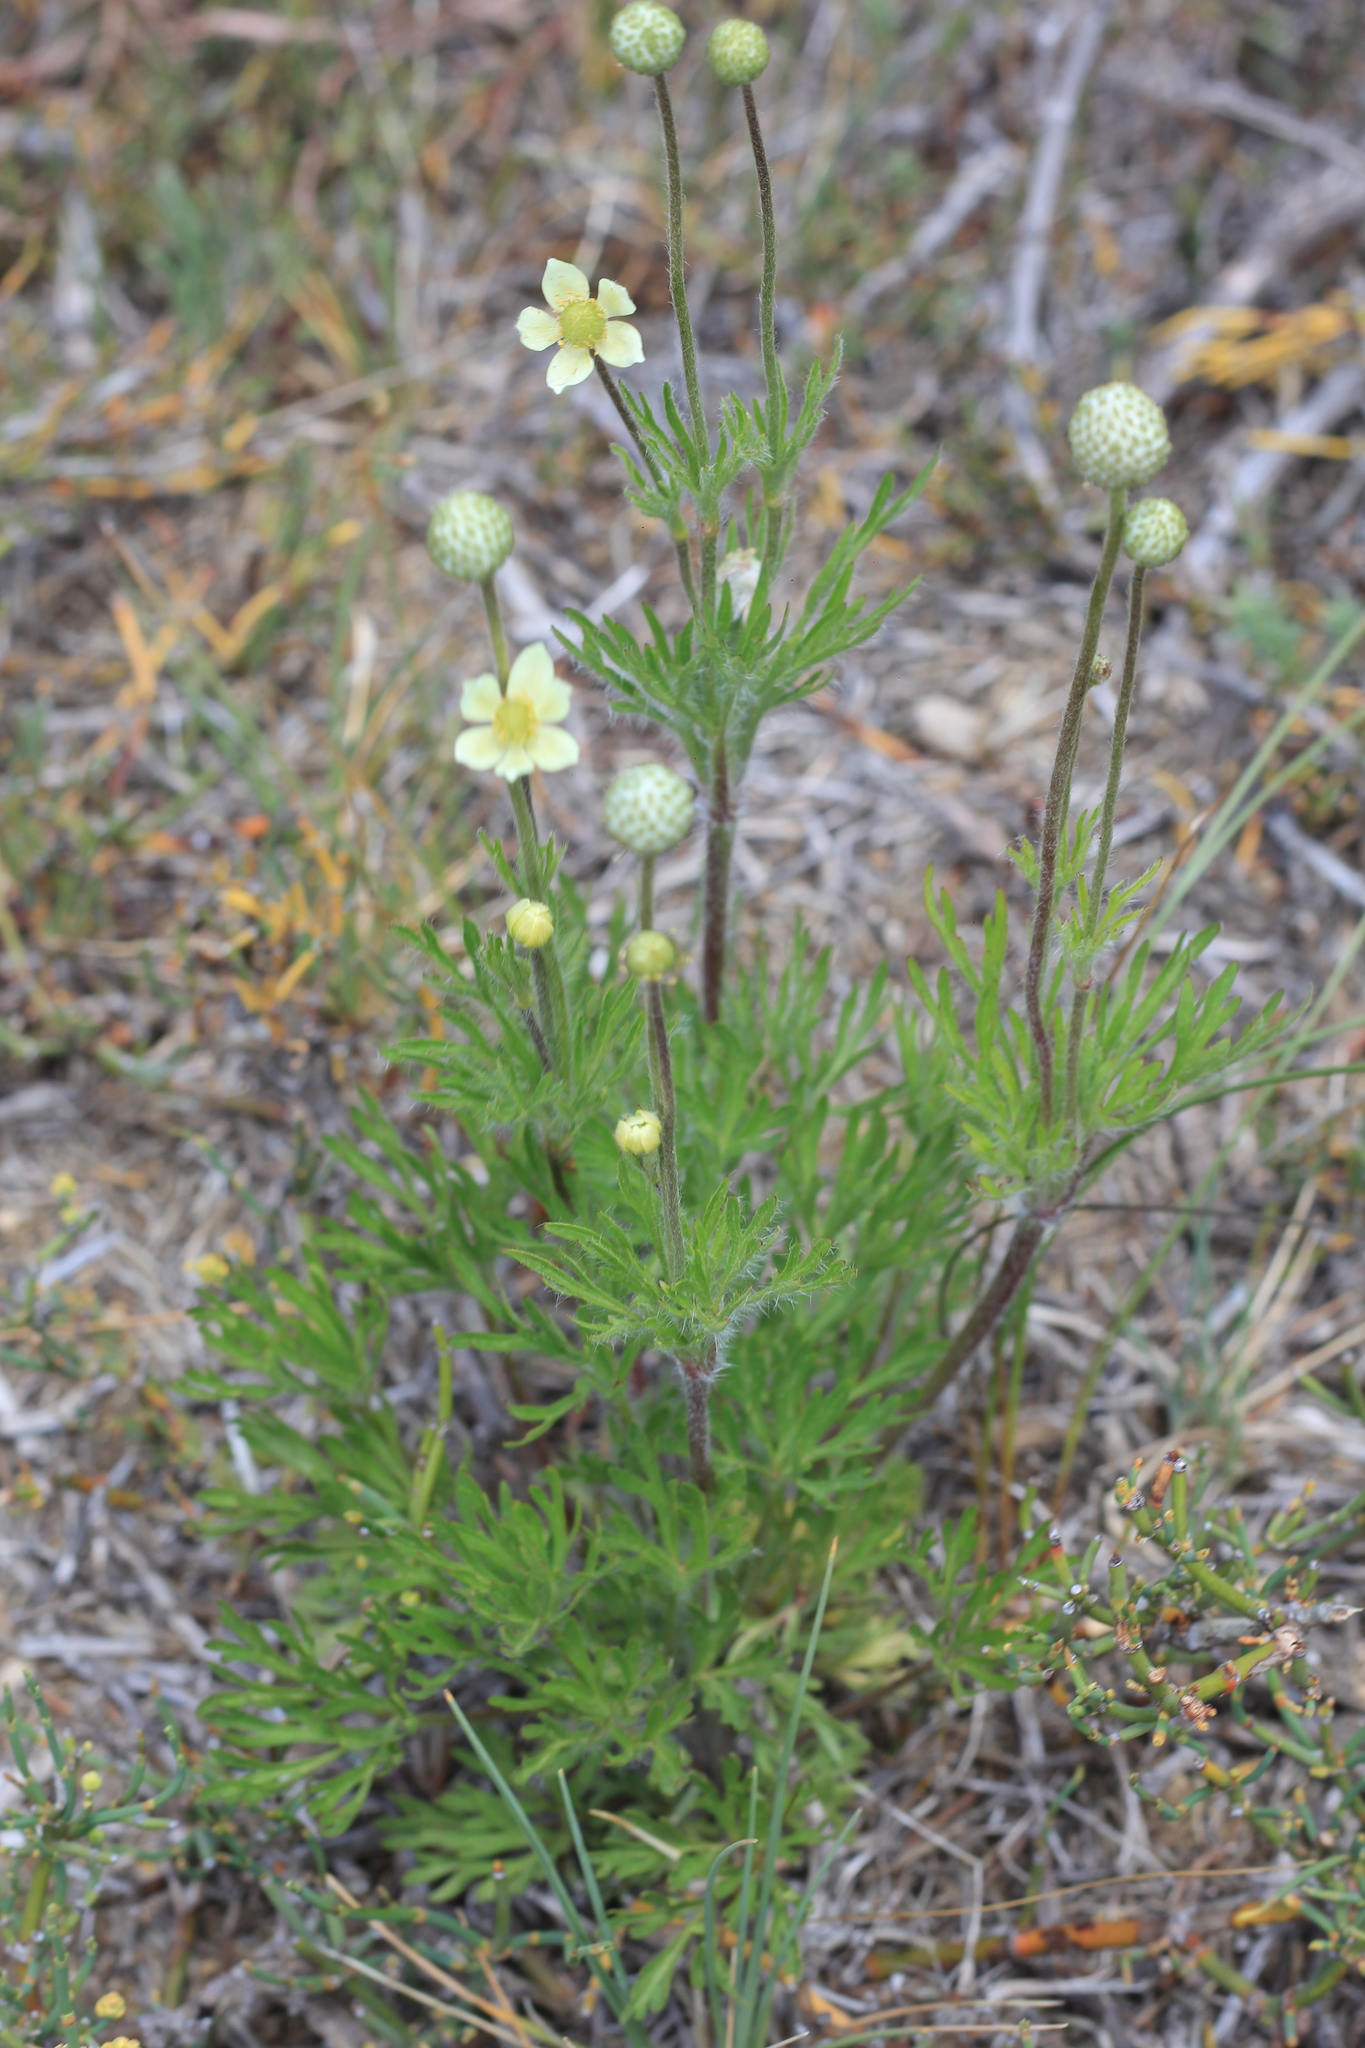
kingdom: Plantae
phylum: Tracheophyta
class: Magnoliopsida
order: Ranunculales
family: Ranunculaceae
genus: Anemone
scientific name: Anemone multifida
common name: Bird's-foot anemone
